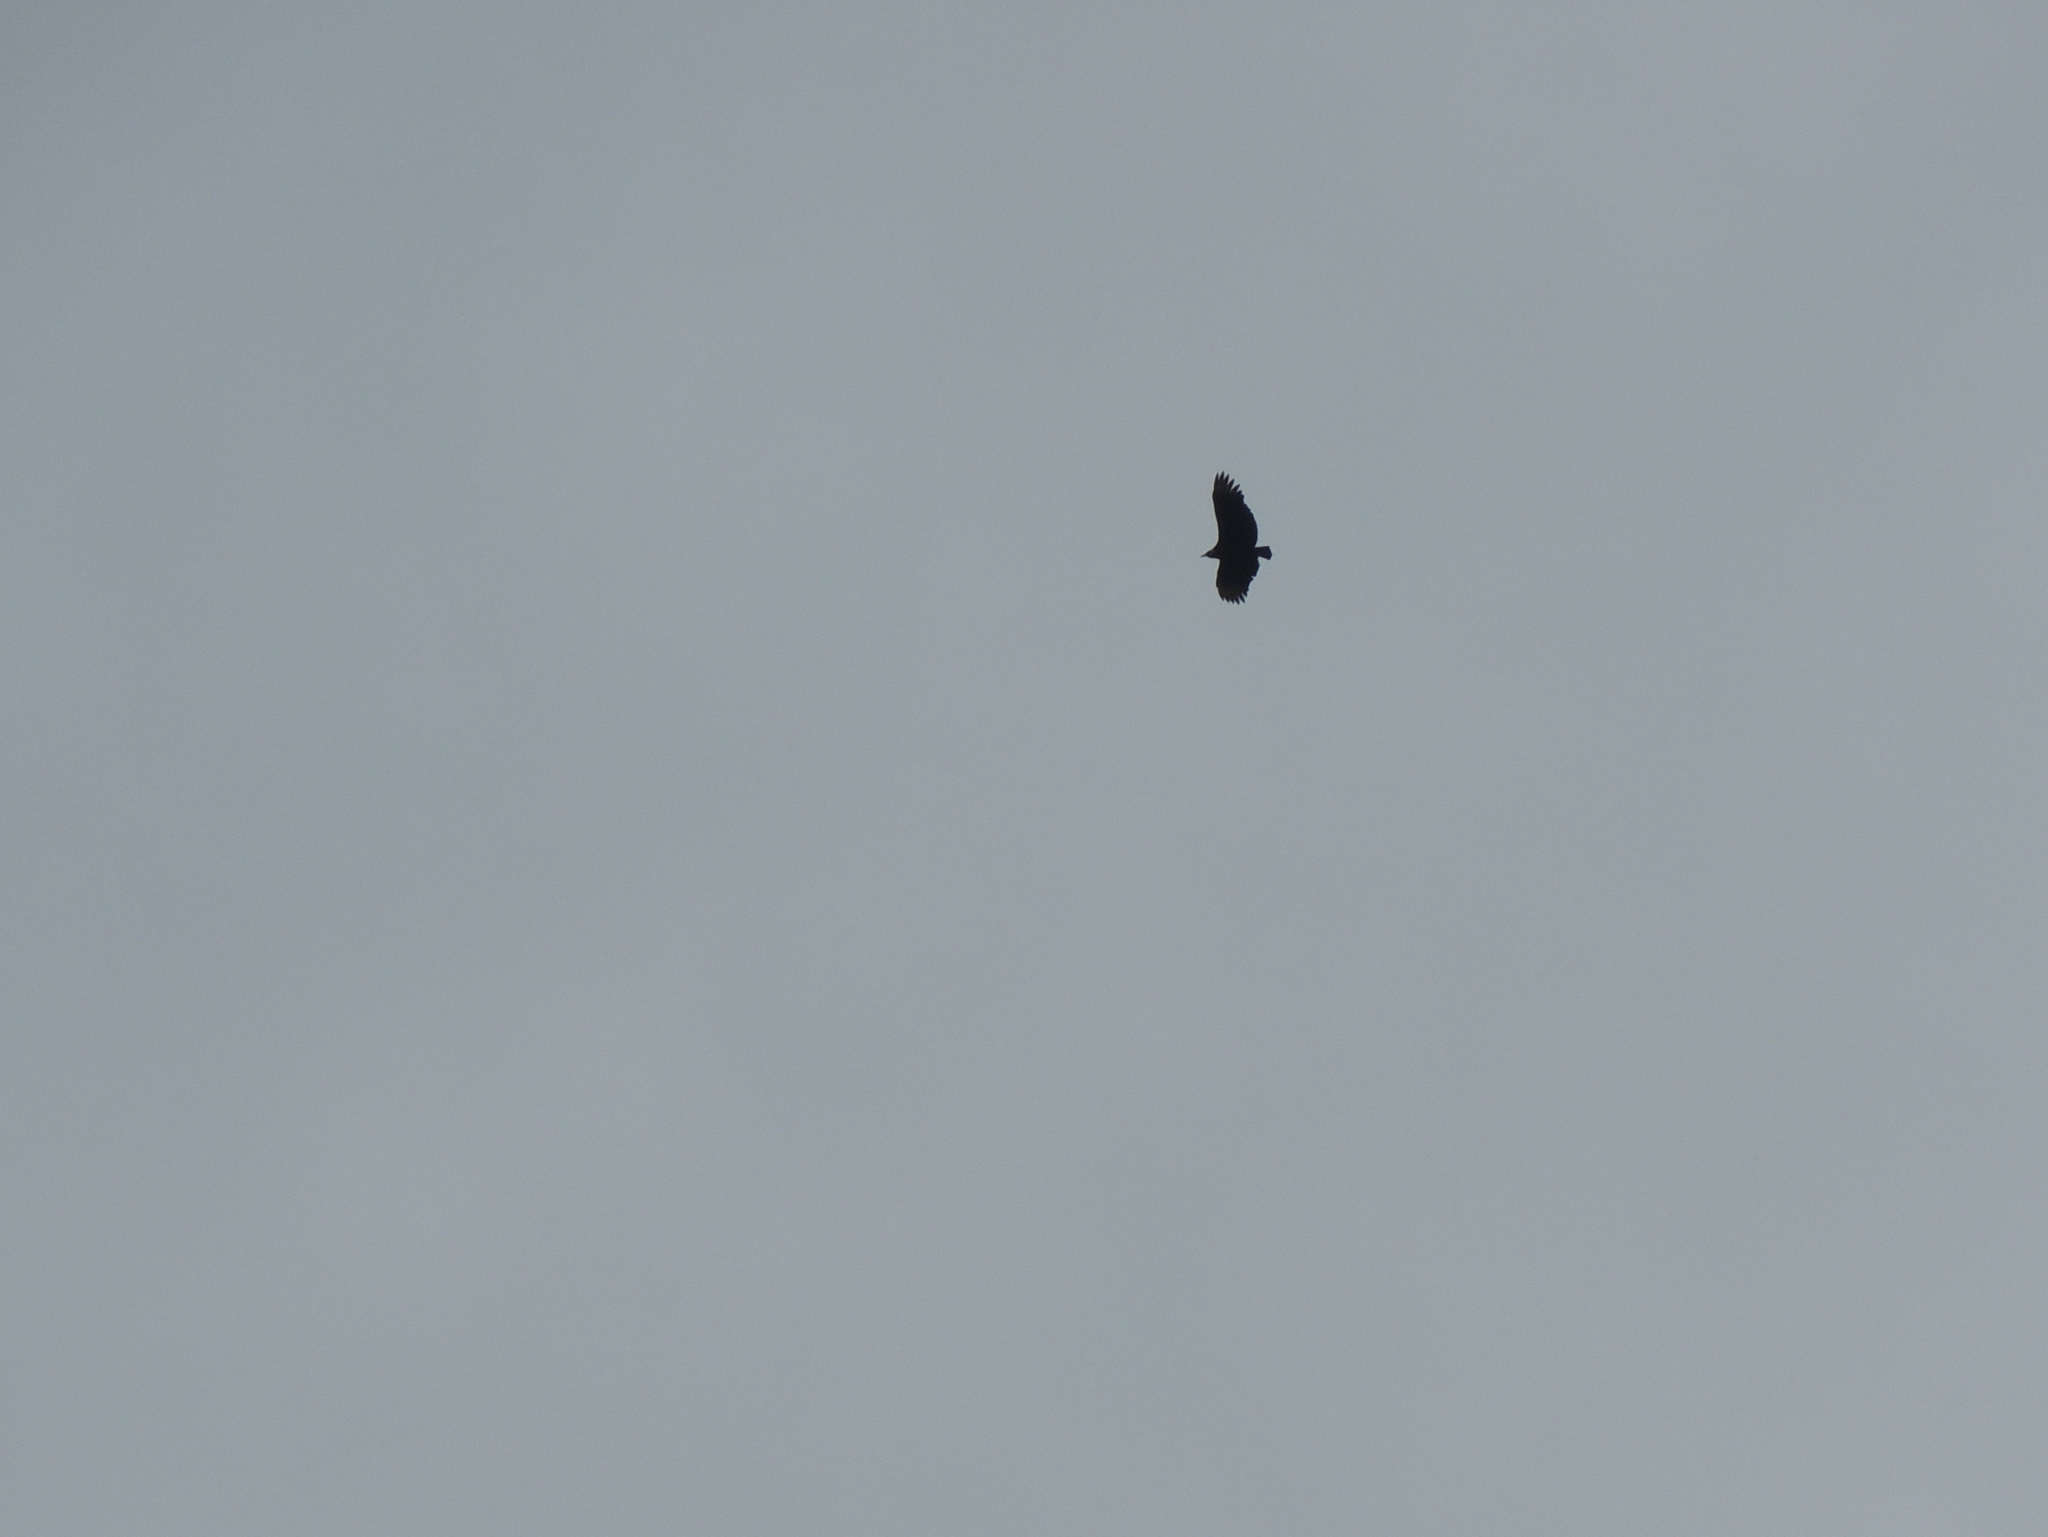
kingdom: Animalia
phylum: Chordata
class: Aves
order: Accipitriformes
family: Cathartidae
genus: Coragyps
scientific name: Coragyps atratus
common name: Black vulture
